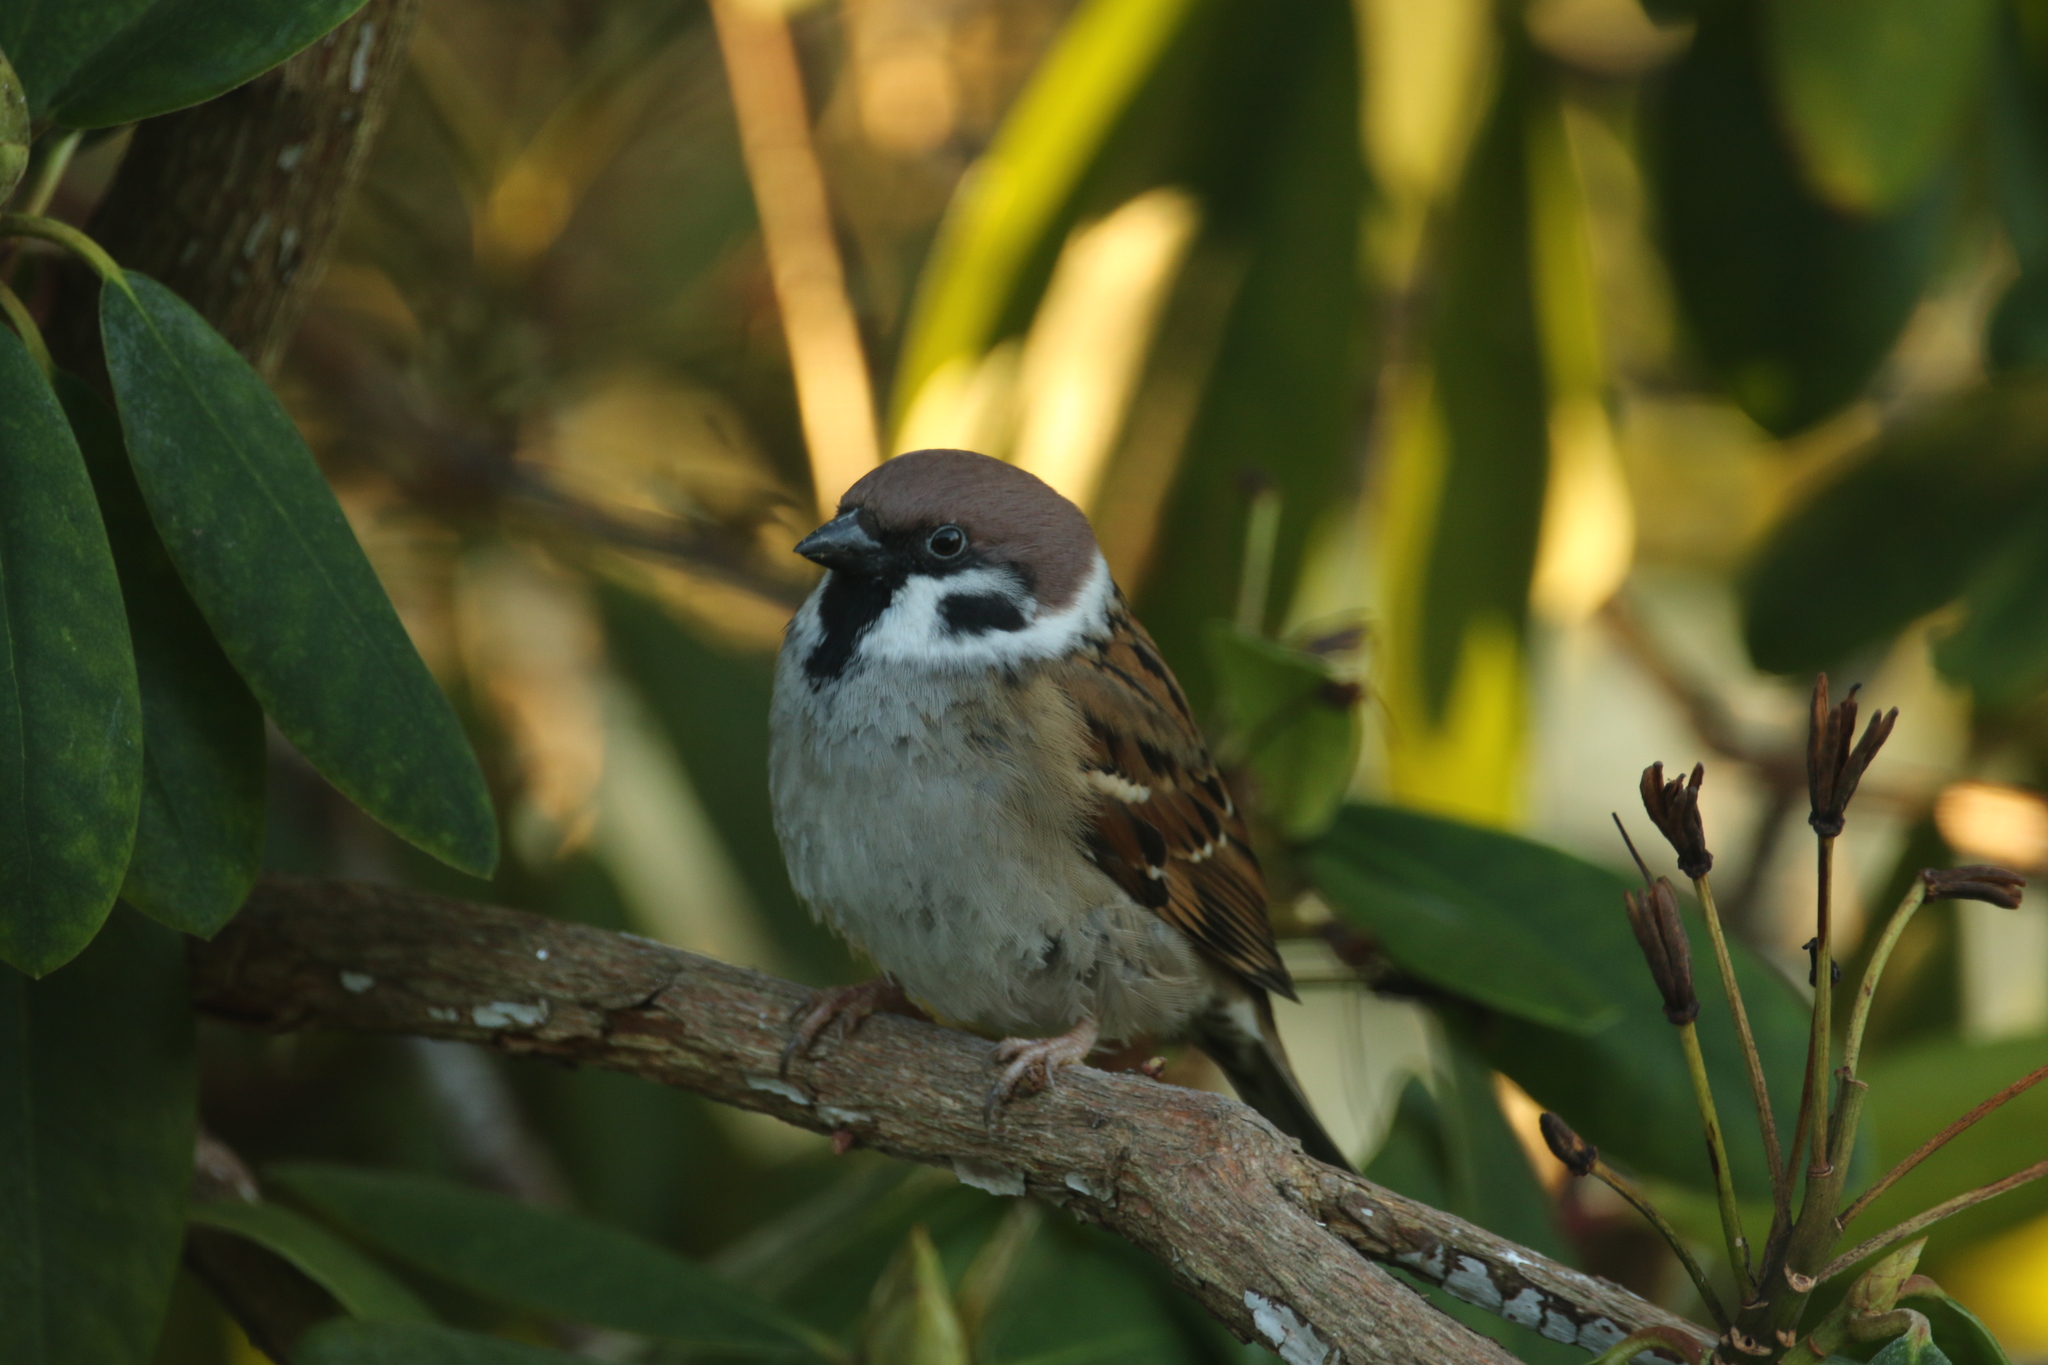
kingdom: Animalia
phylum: Chordata
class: Aves
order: Passeriformes
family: Passeridae
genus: Passer
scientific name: Passer montanus
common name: Eurasian tree sparrow
